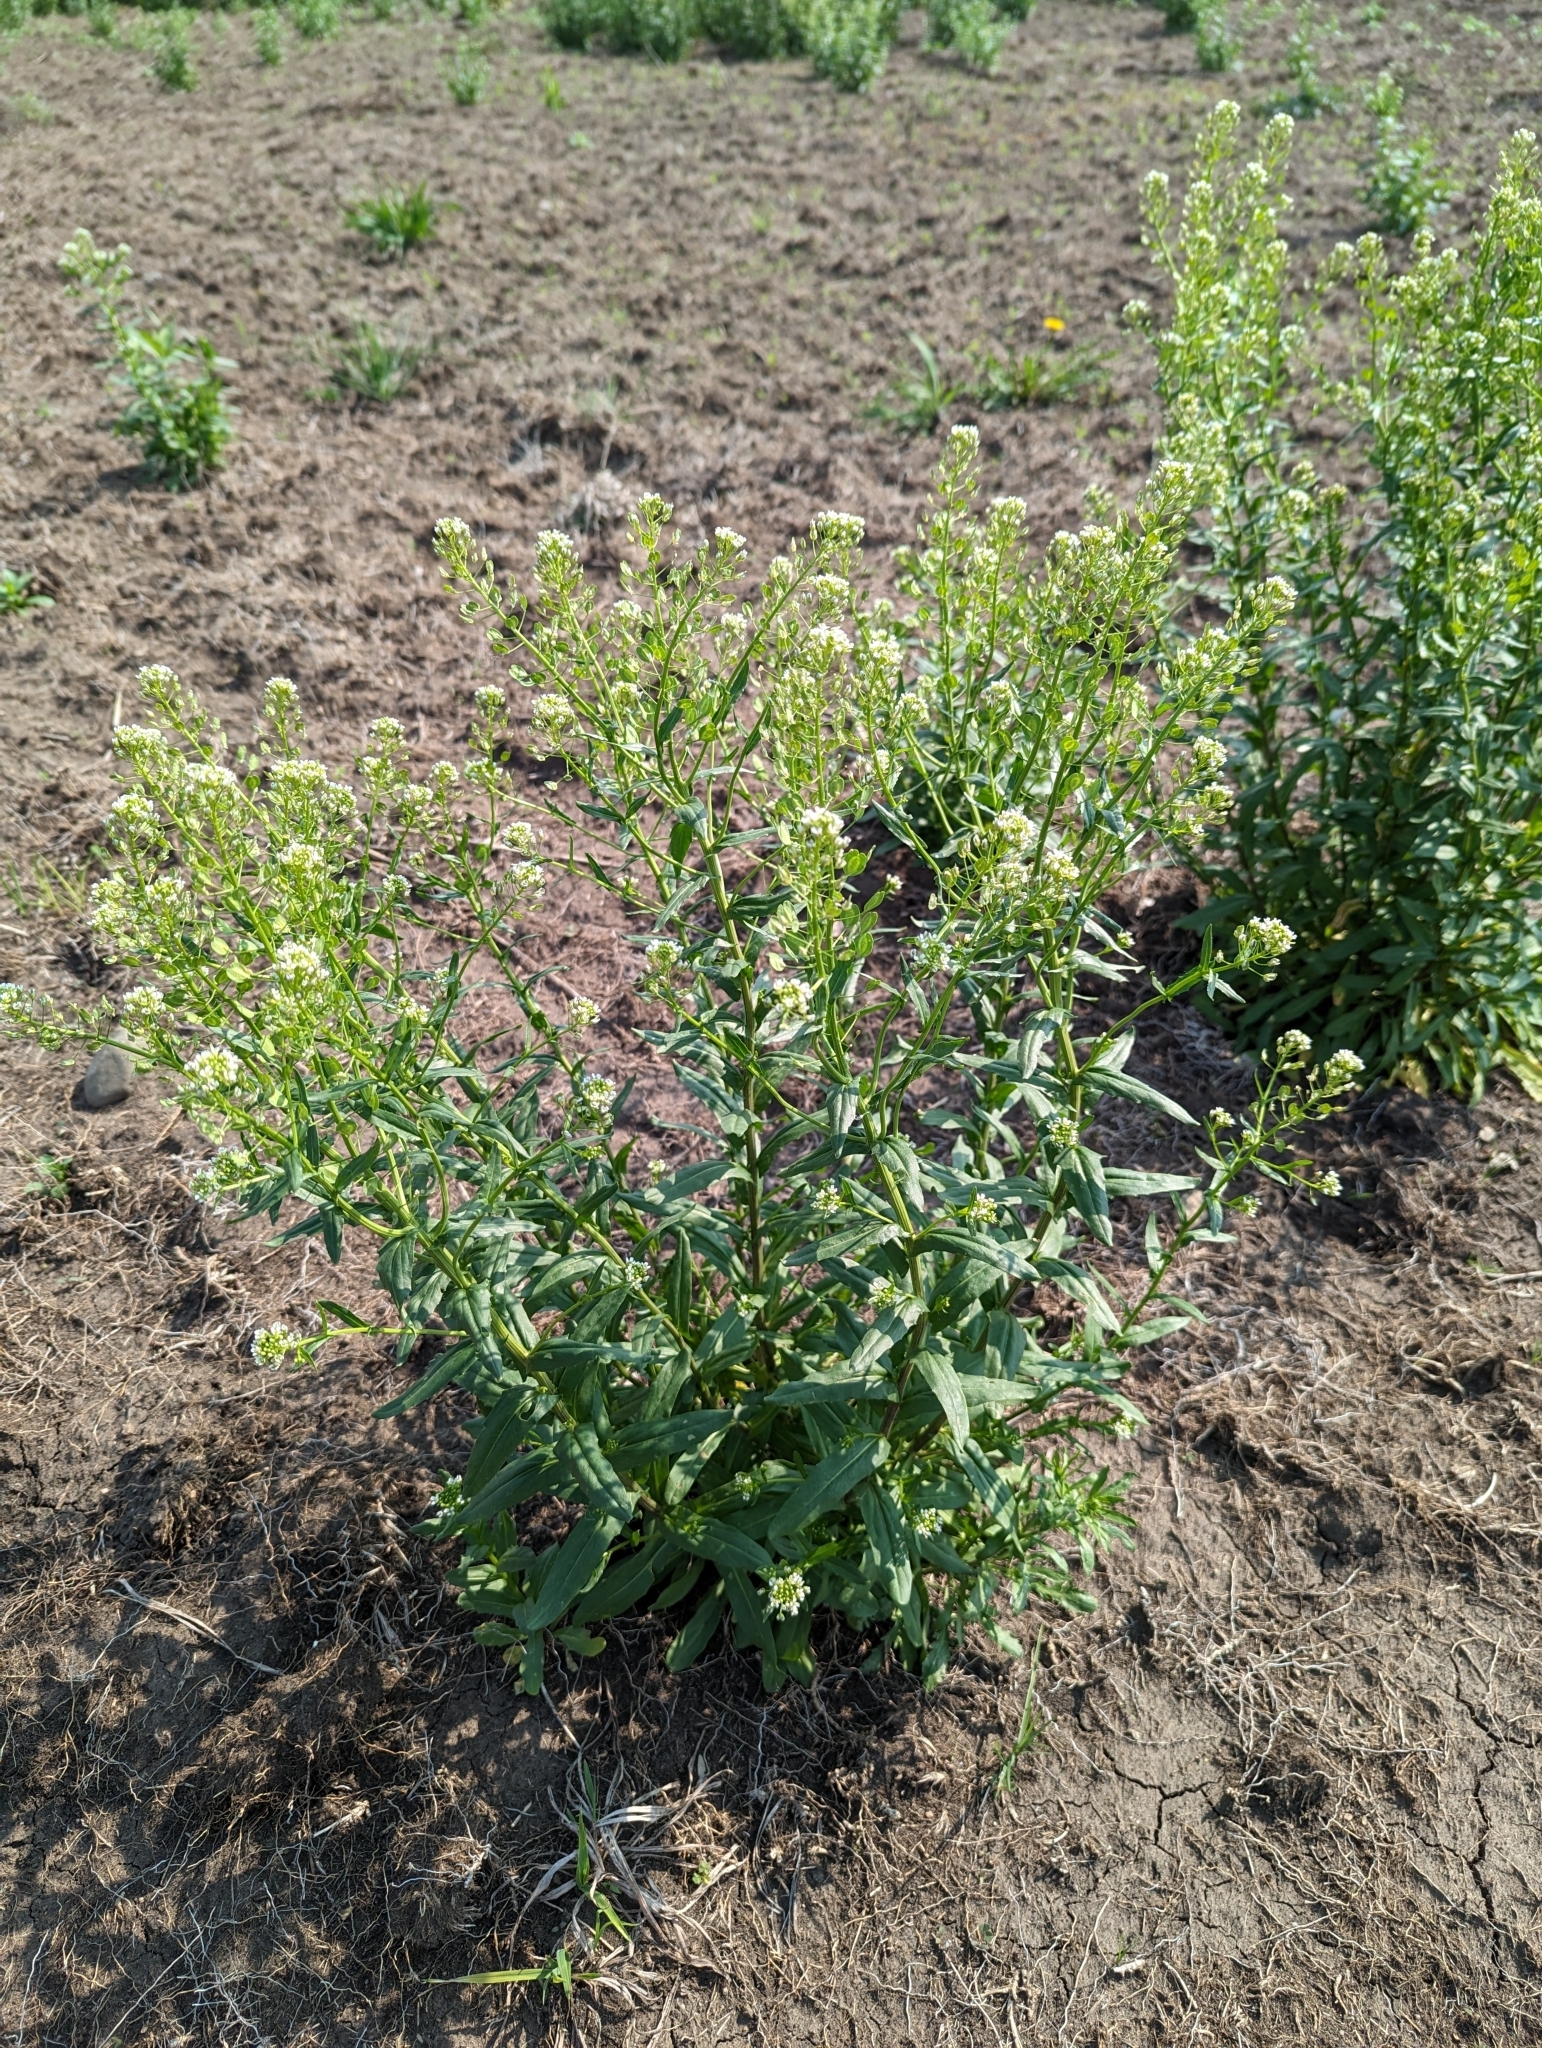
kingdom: Plantae
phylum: Tracheophyta
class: Magnoliopsida
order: Brassicales
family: Brassicaceae
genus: Thlaspi
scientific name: Thlaspi arvense
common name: Field pennycress
